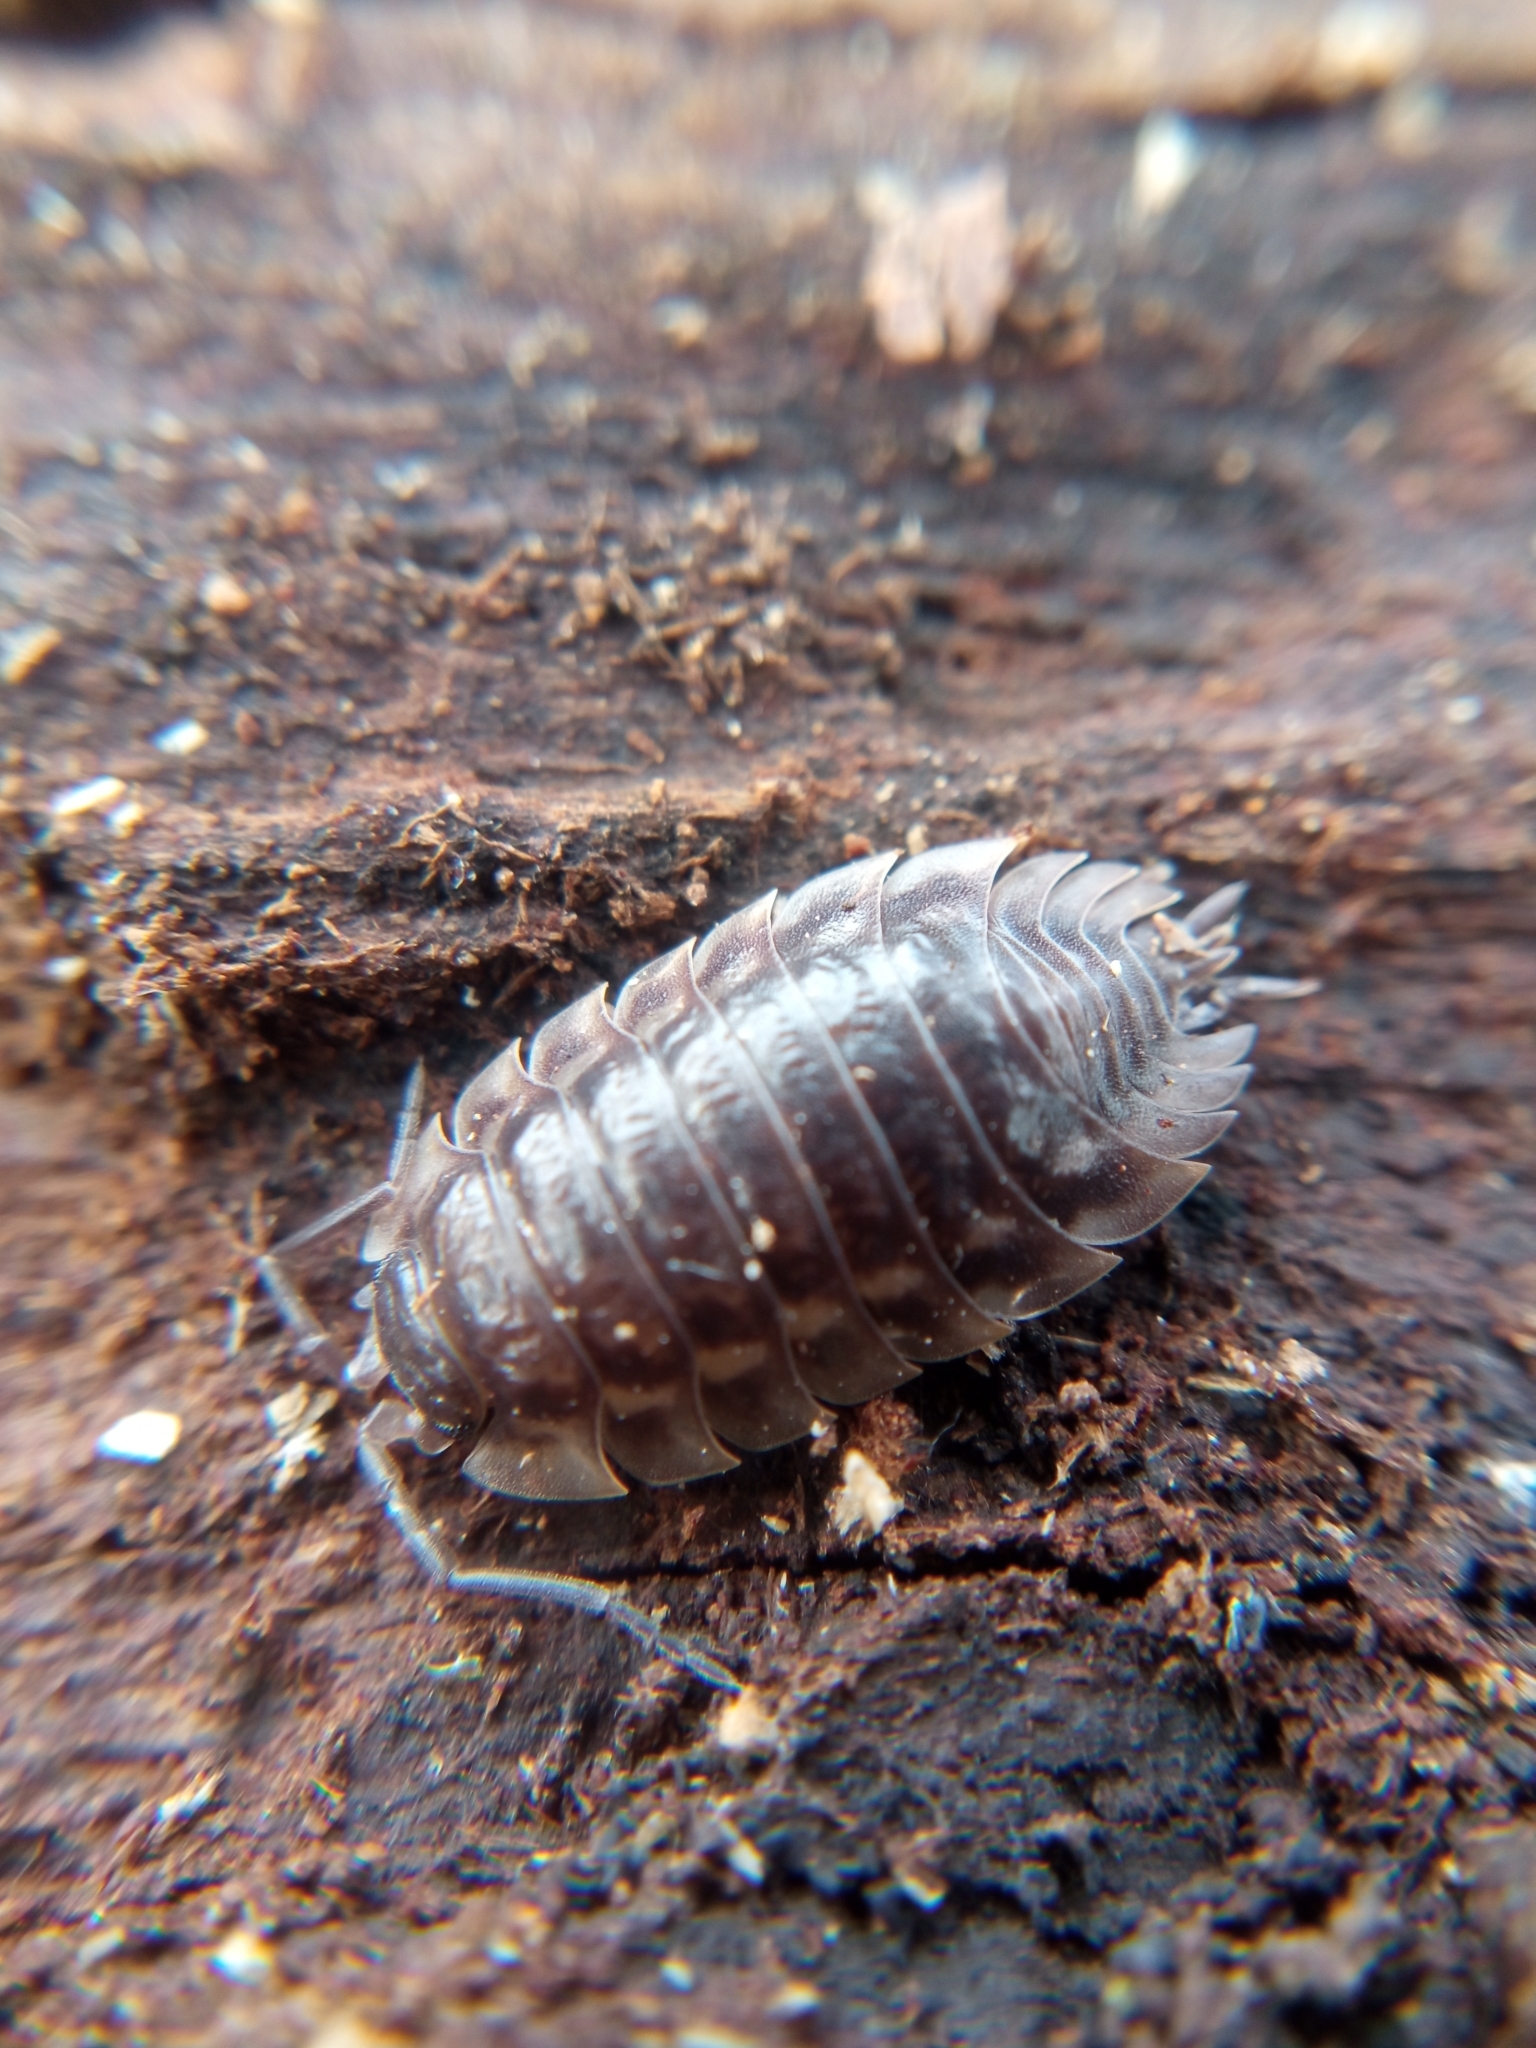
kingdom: Animalia
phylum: Arthropoda
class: Malacostraca
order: Isopoda
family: Oniscidae
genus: Oniscus
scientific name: Oniscus asellus
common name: Common shiny woodlouse
